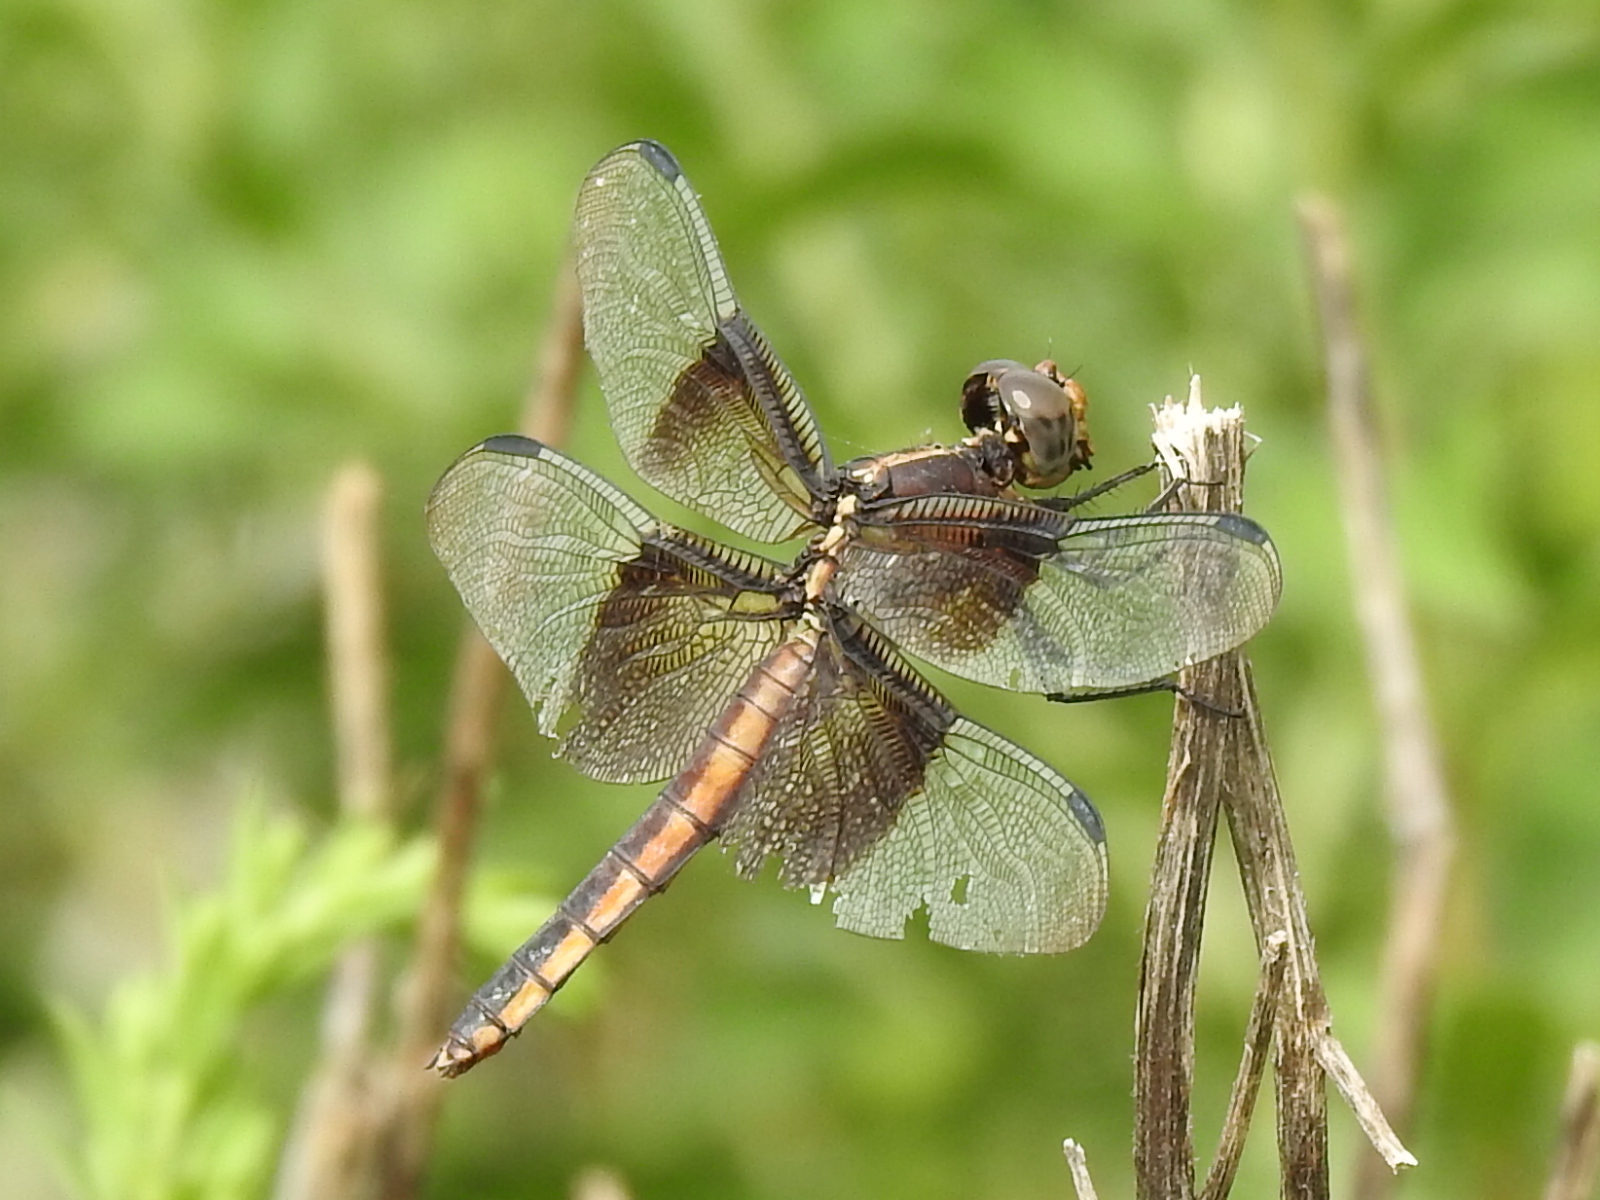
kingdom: Animalia
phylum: Arthropoda
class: Insecta
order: Odonata
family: Libellulidae
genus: Libellula
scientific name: Libellula luctuosa
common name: Widow skimmer
